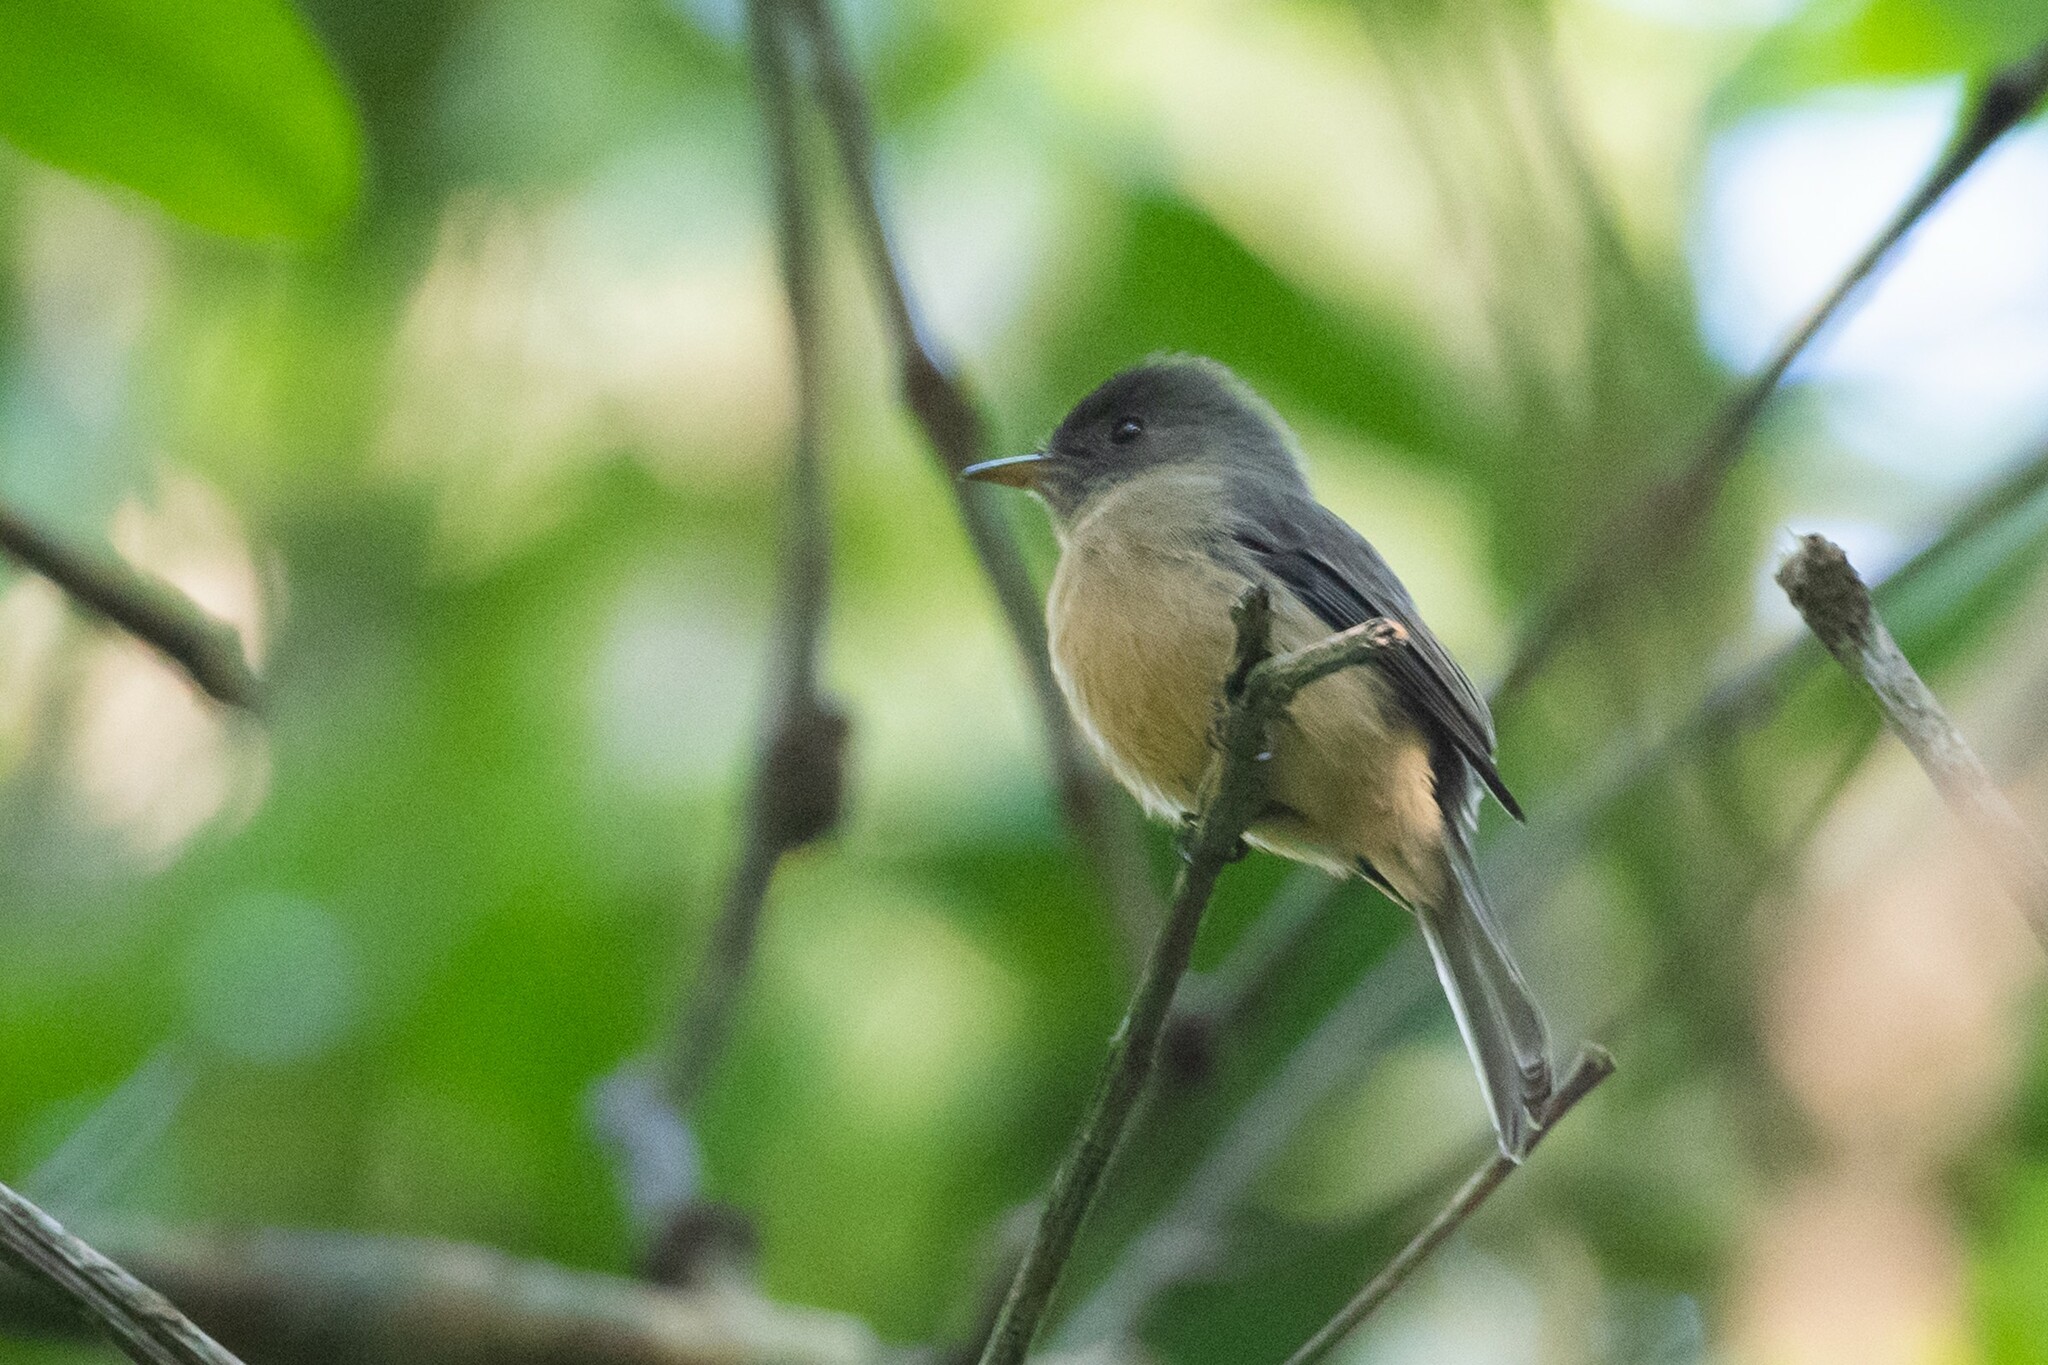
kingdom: Animalia
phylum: Chordata
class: Aves
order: Passeriformes
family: Tyrannidae
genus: Contopus
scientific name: Contopus latirostris
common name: Lesser antillean pewee
